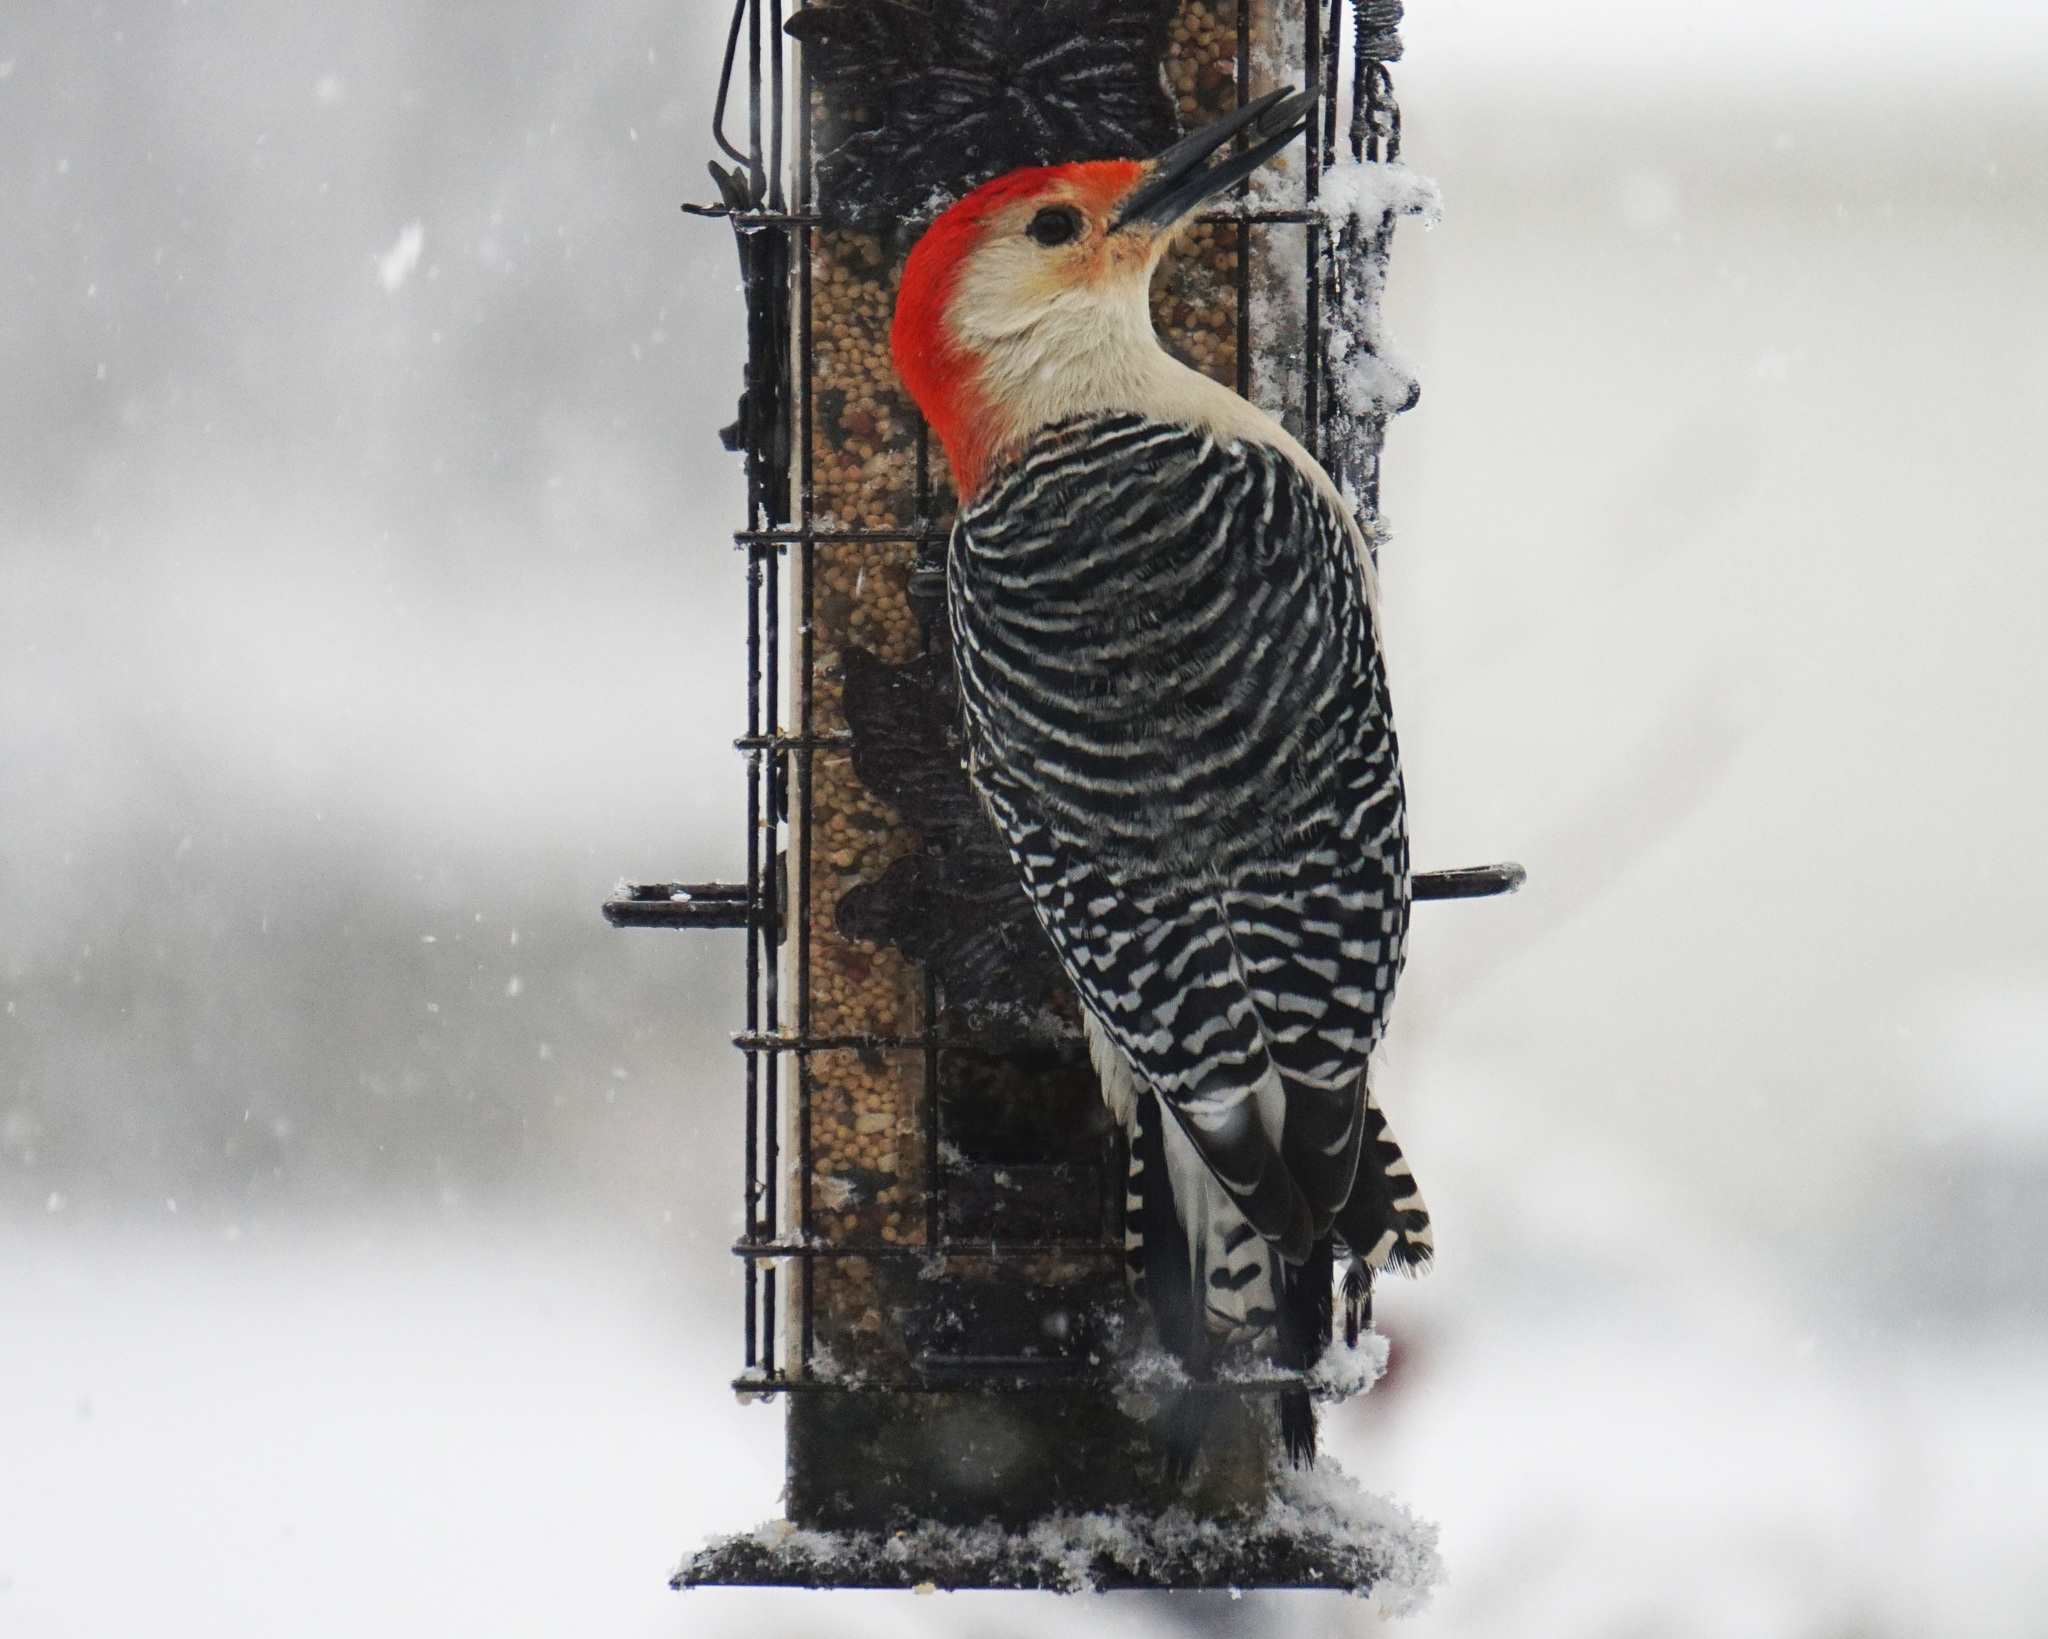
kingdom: Animalia
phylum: Chordata
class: Aves
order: Piciformes
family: Picidae
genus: Melanerpes
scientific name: Melanerpes carolinus
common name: Red-bellied woodpecker
